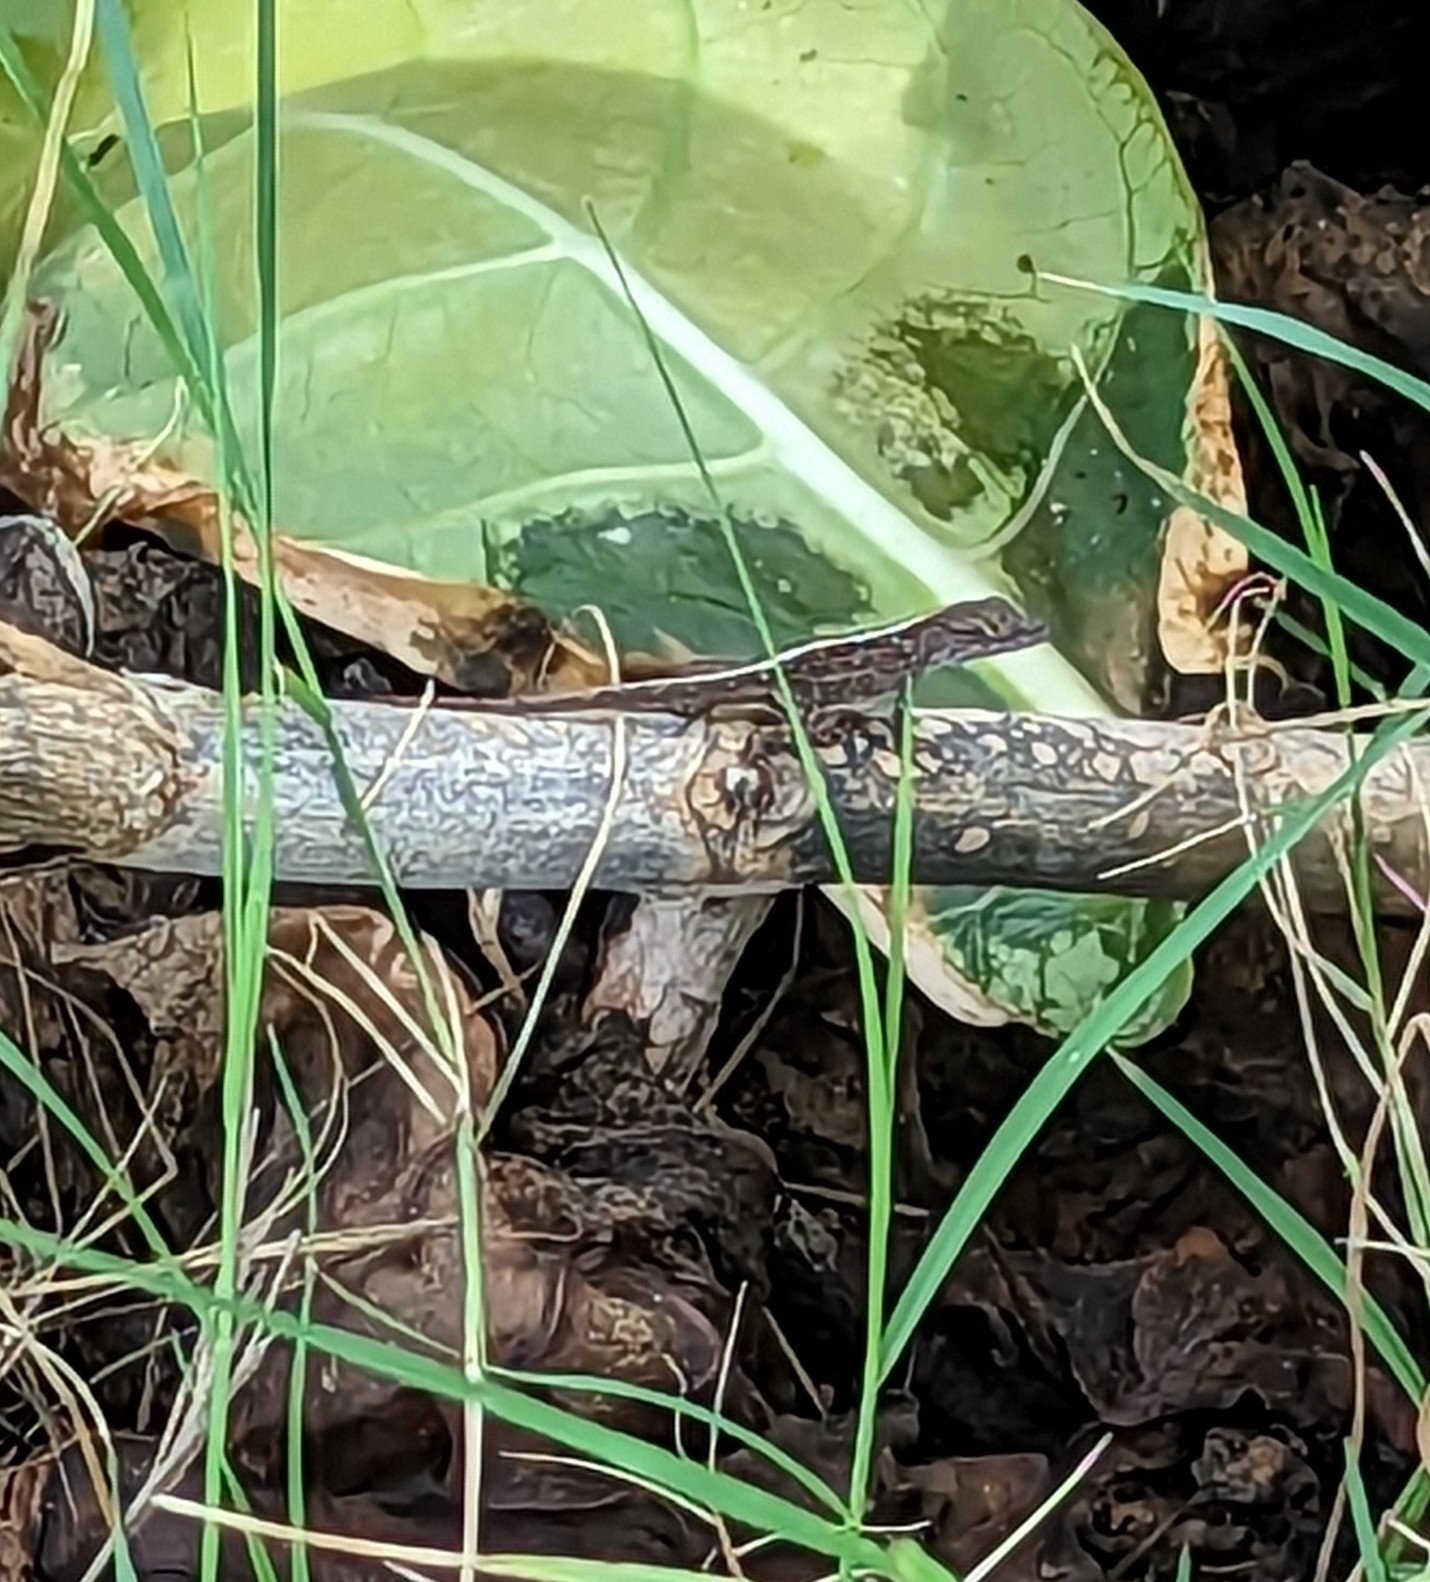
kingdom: Animalia
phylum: Chordata
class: Squamata
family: Dactyloidae
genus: Anolis
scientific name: Anolis sagrei
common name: Brown anole
